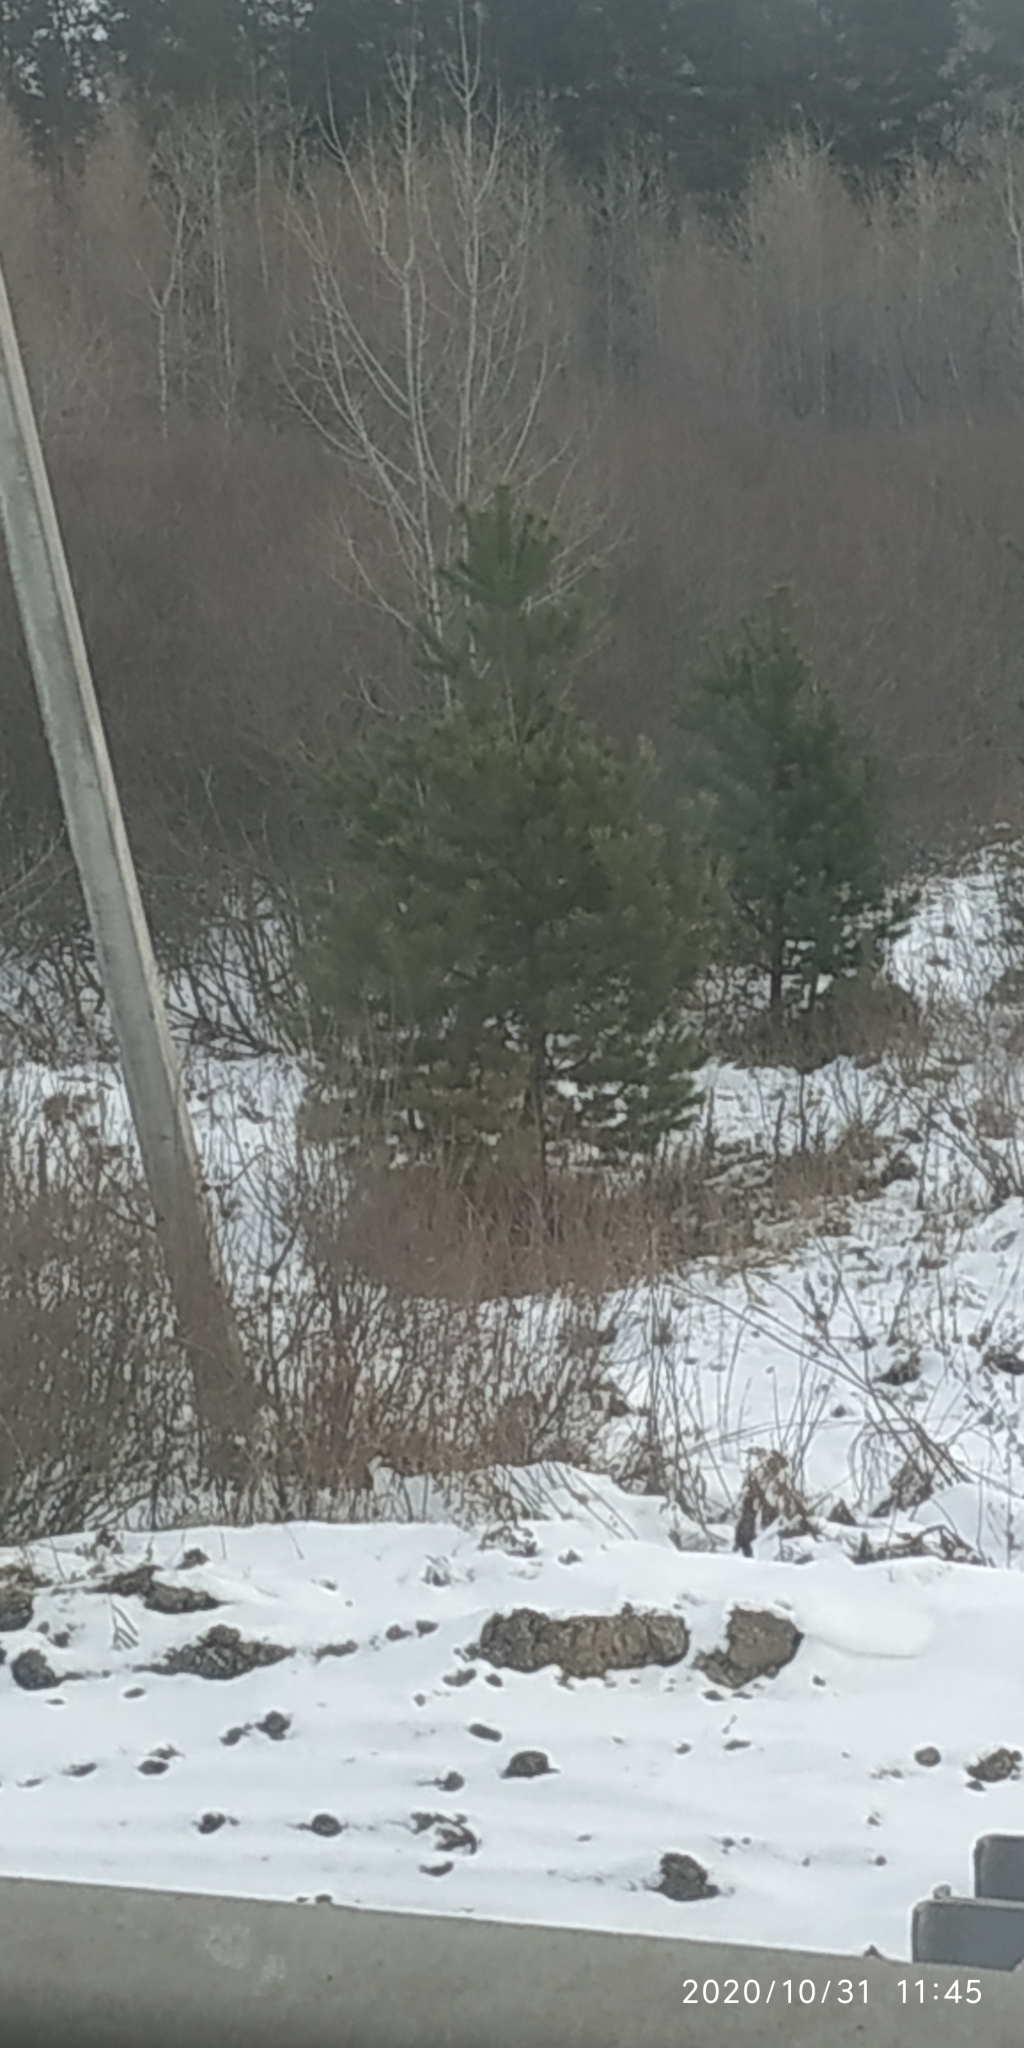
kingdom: Plantae
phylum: Tracheophyta
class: Pinopsida
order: Pinales
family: Pinaceae
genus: Pinus
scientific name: Pinus sylvestris
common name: Scots pine
